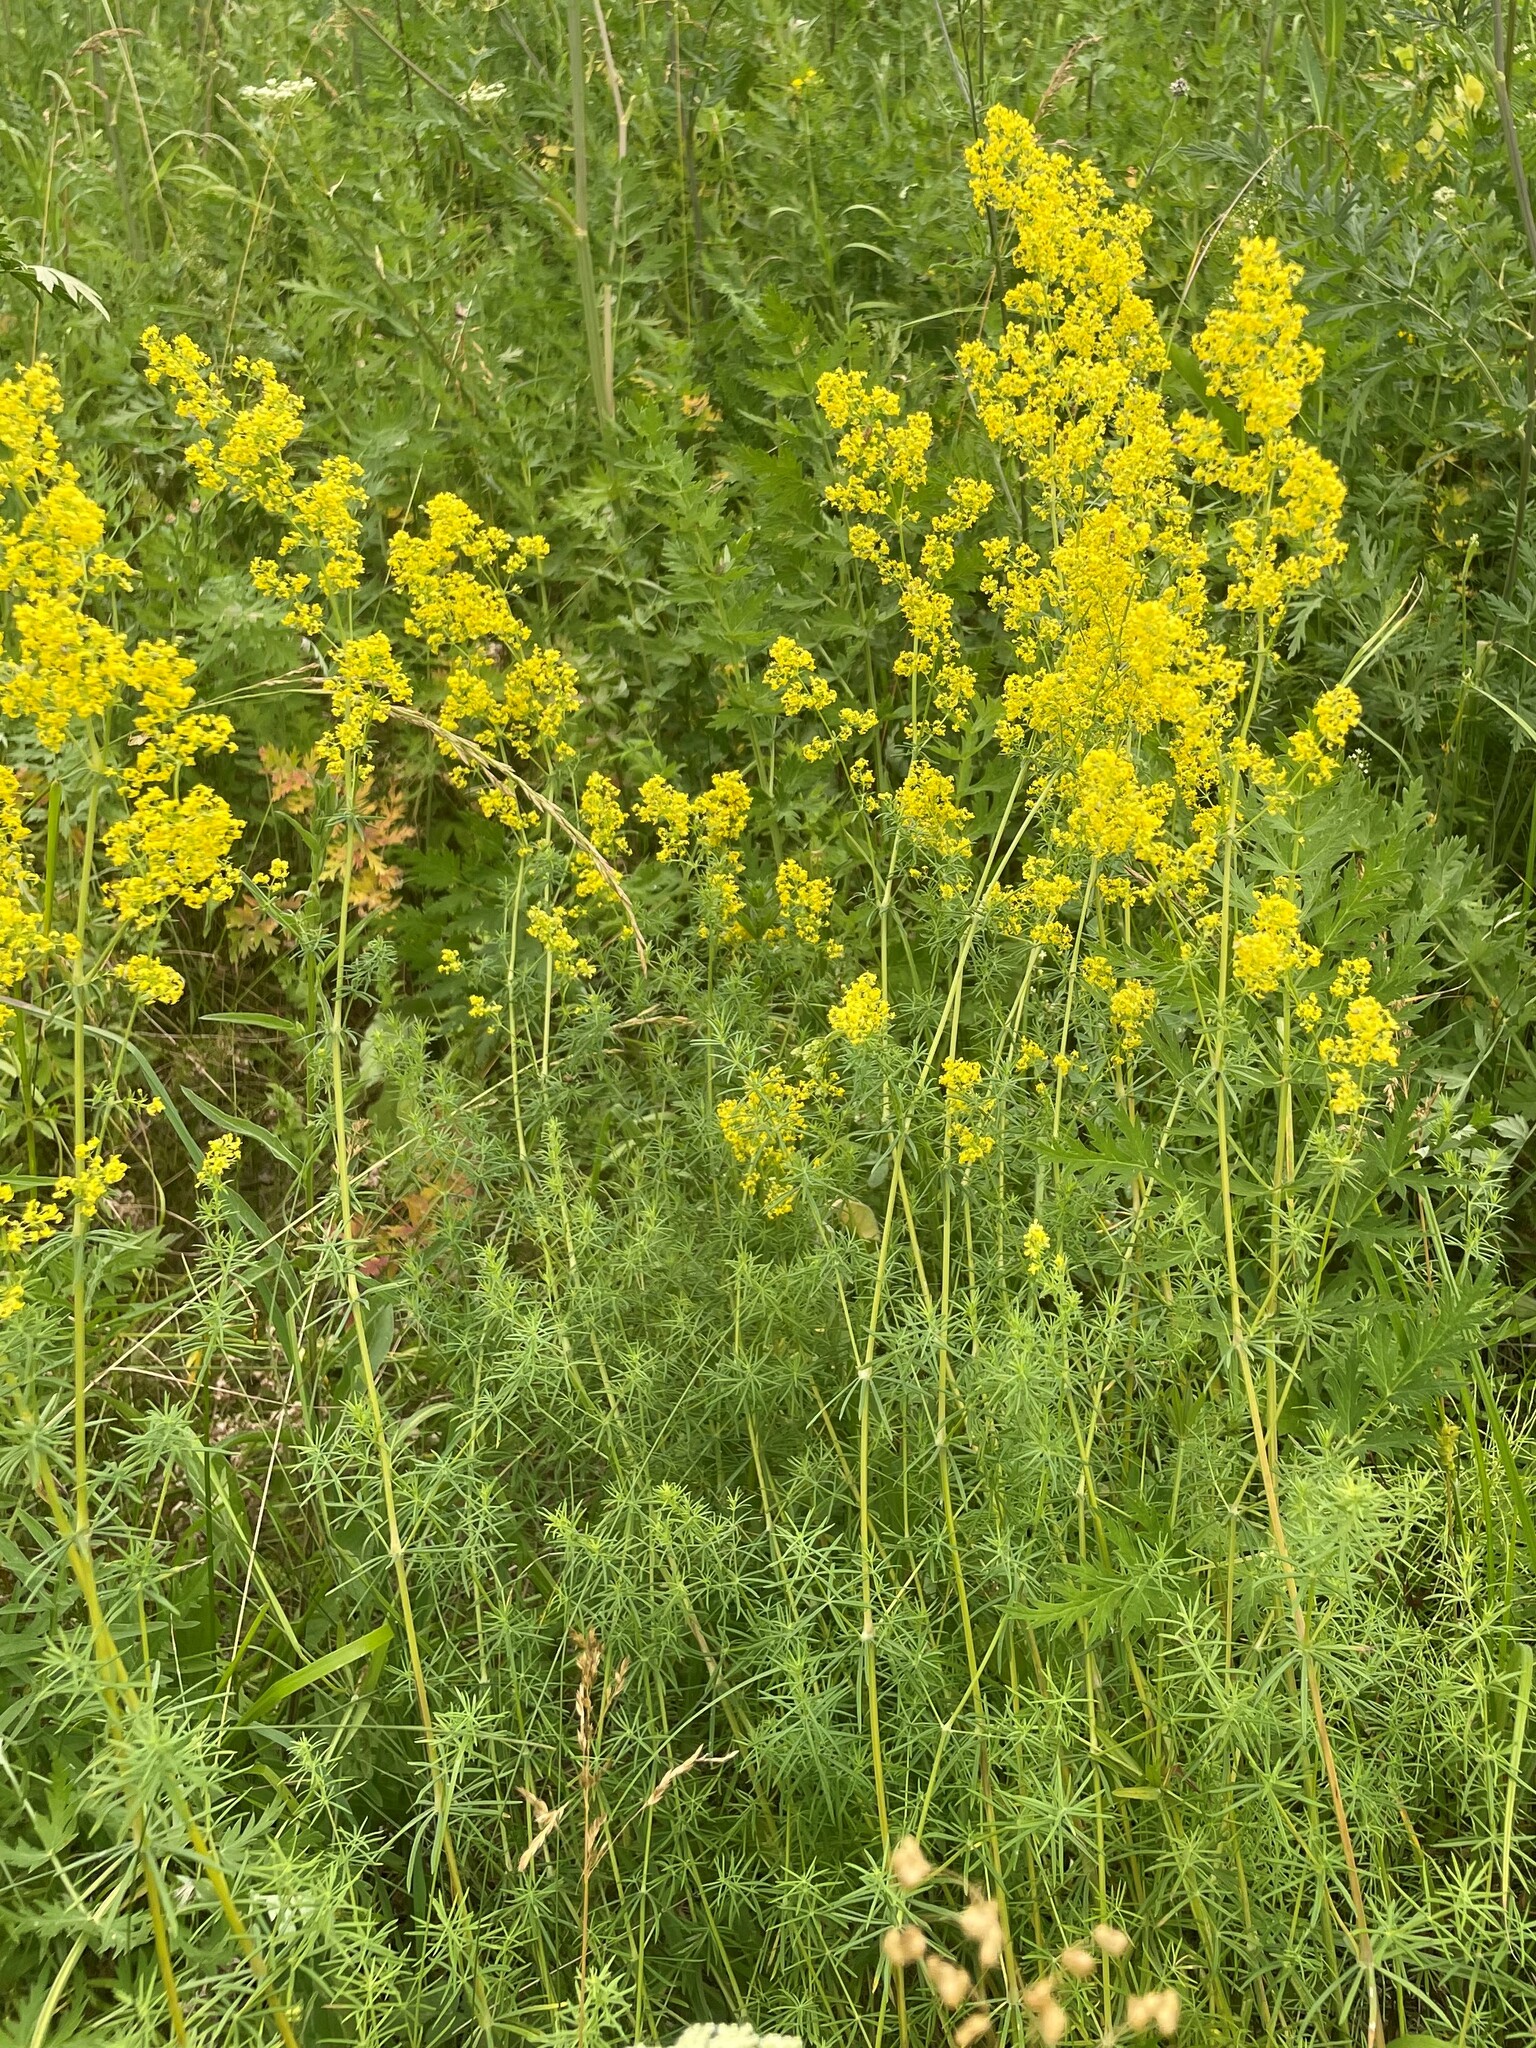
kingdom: Plantae
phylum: Tracheophyta
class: Magnoliopsida
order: Gentianales
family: Rubiaceae
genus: Galium
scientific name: Galium verum
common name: Lady's bedstraw
